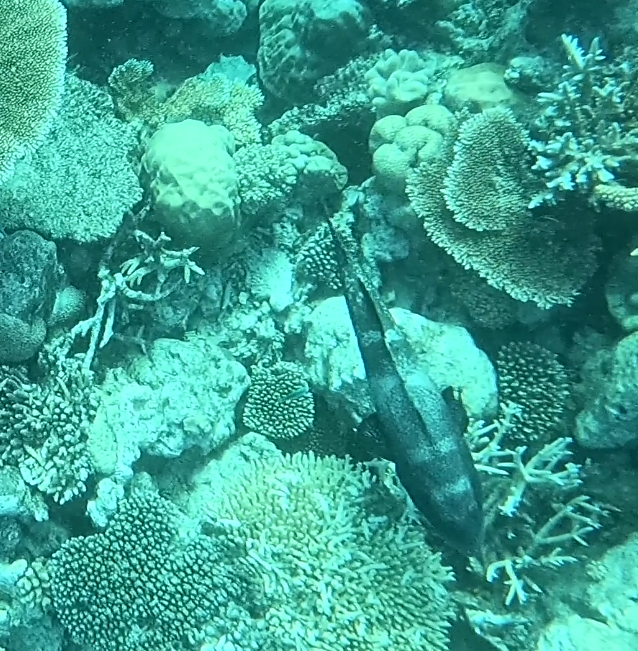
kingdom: Animalia
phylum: Chordata
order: Perciformes
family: Serranidae
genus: Plectropomus
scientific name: Plectropomus laevis
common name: Chinese footballer
